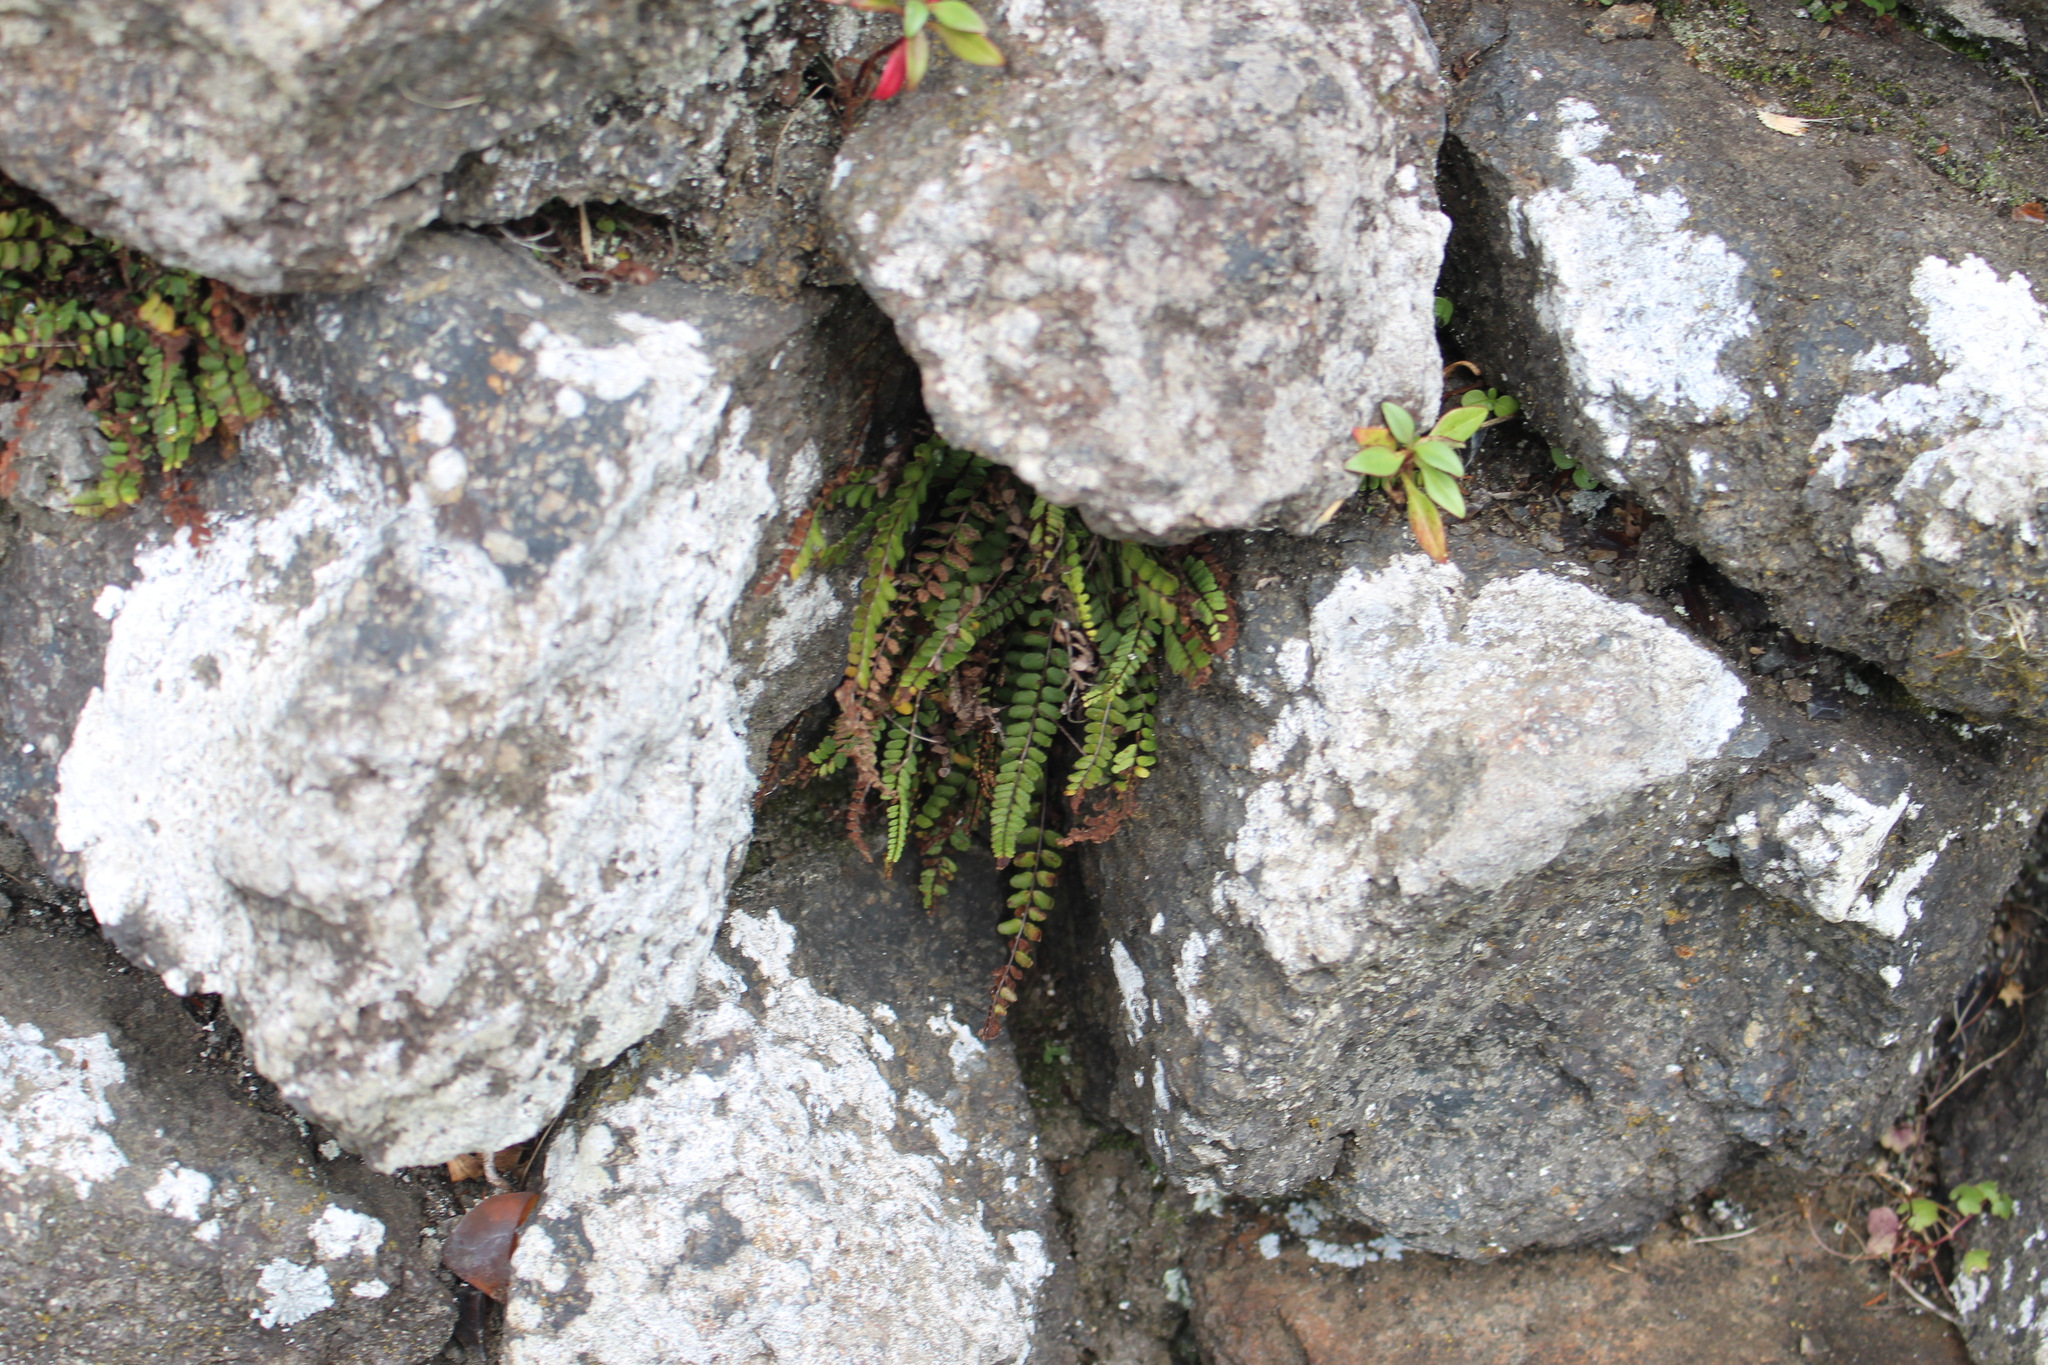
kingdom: Plantae
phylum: Tracheophyta
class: Polypodiopsida
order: Polypodiales
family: Aspleniaceae
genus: Asplenium
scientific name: Asplenium trichomanes
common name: Maidenhair spleenwort
